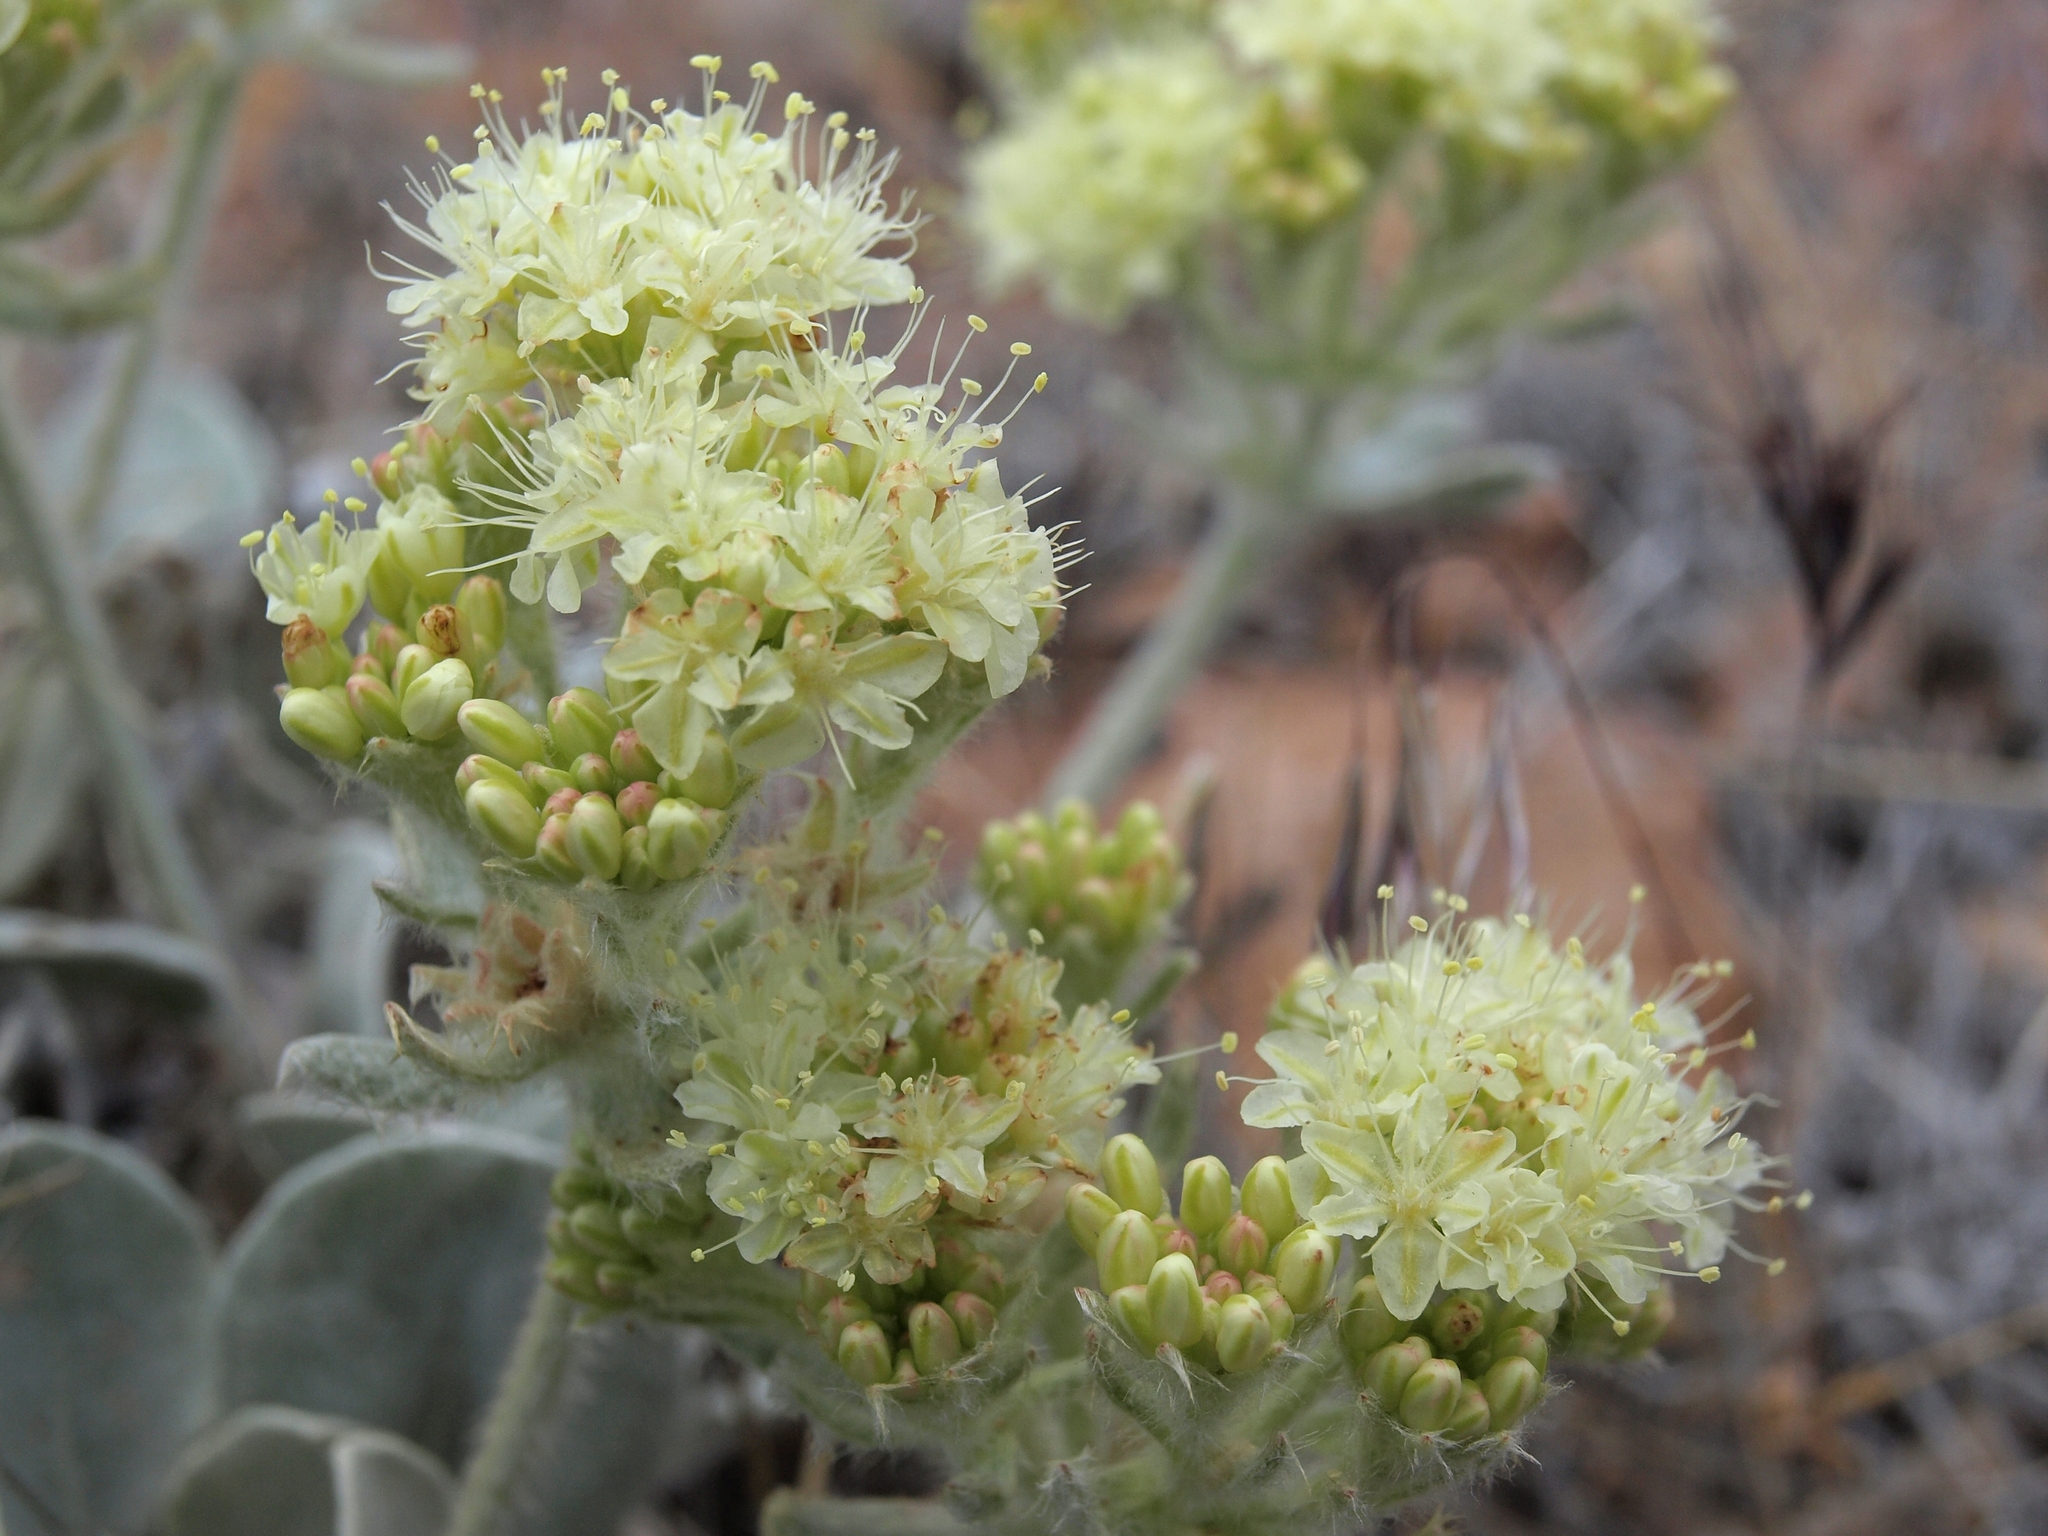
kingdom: Plantae
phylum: Tracheophyta
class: Magnoliopsida
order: Caryophyllales
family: Polygonaceae
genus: Eriogonum
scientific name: Eriogonum robustum
